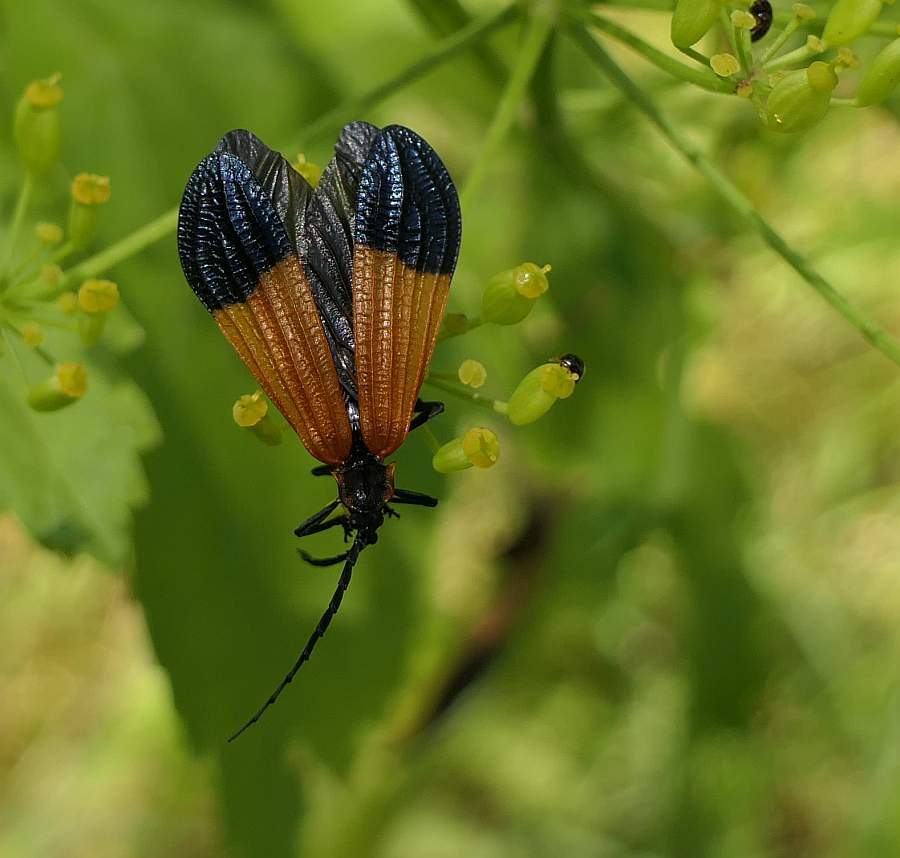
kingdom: Animalia
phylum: Arthropoda
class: Insecta
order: Coleoptera
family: Lycidae
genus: Calopteron
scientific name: Calopteron terminale
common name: End band net-winged beetle
